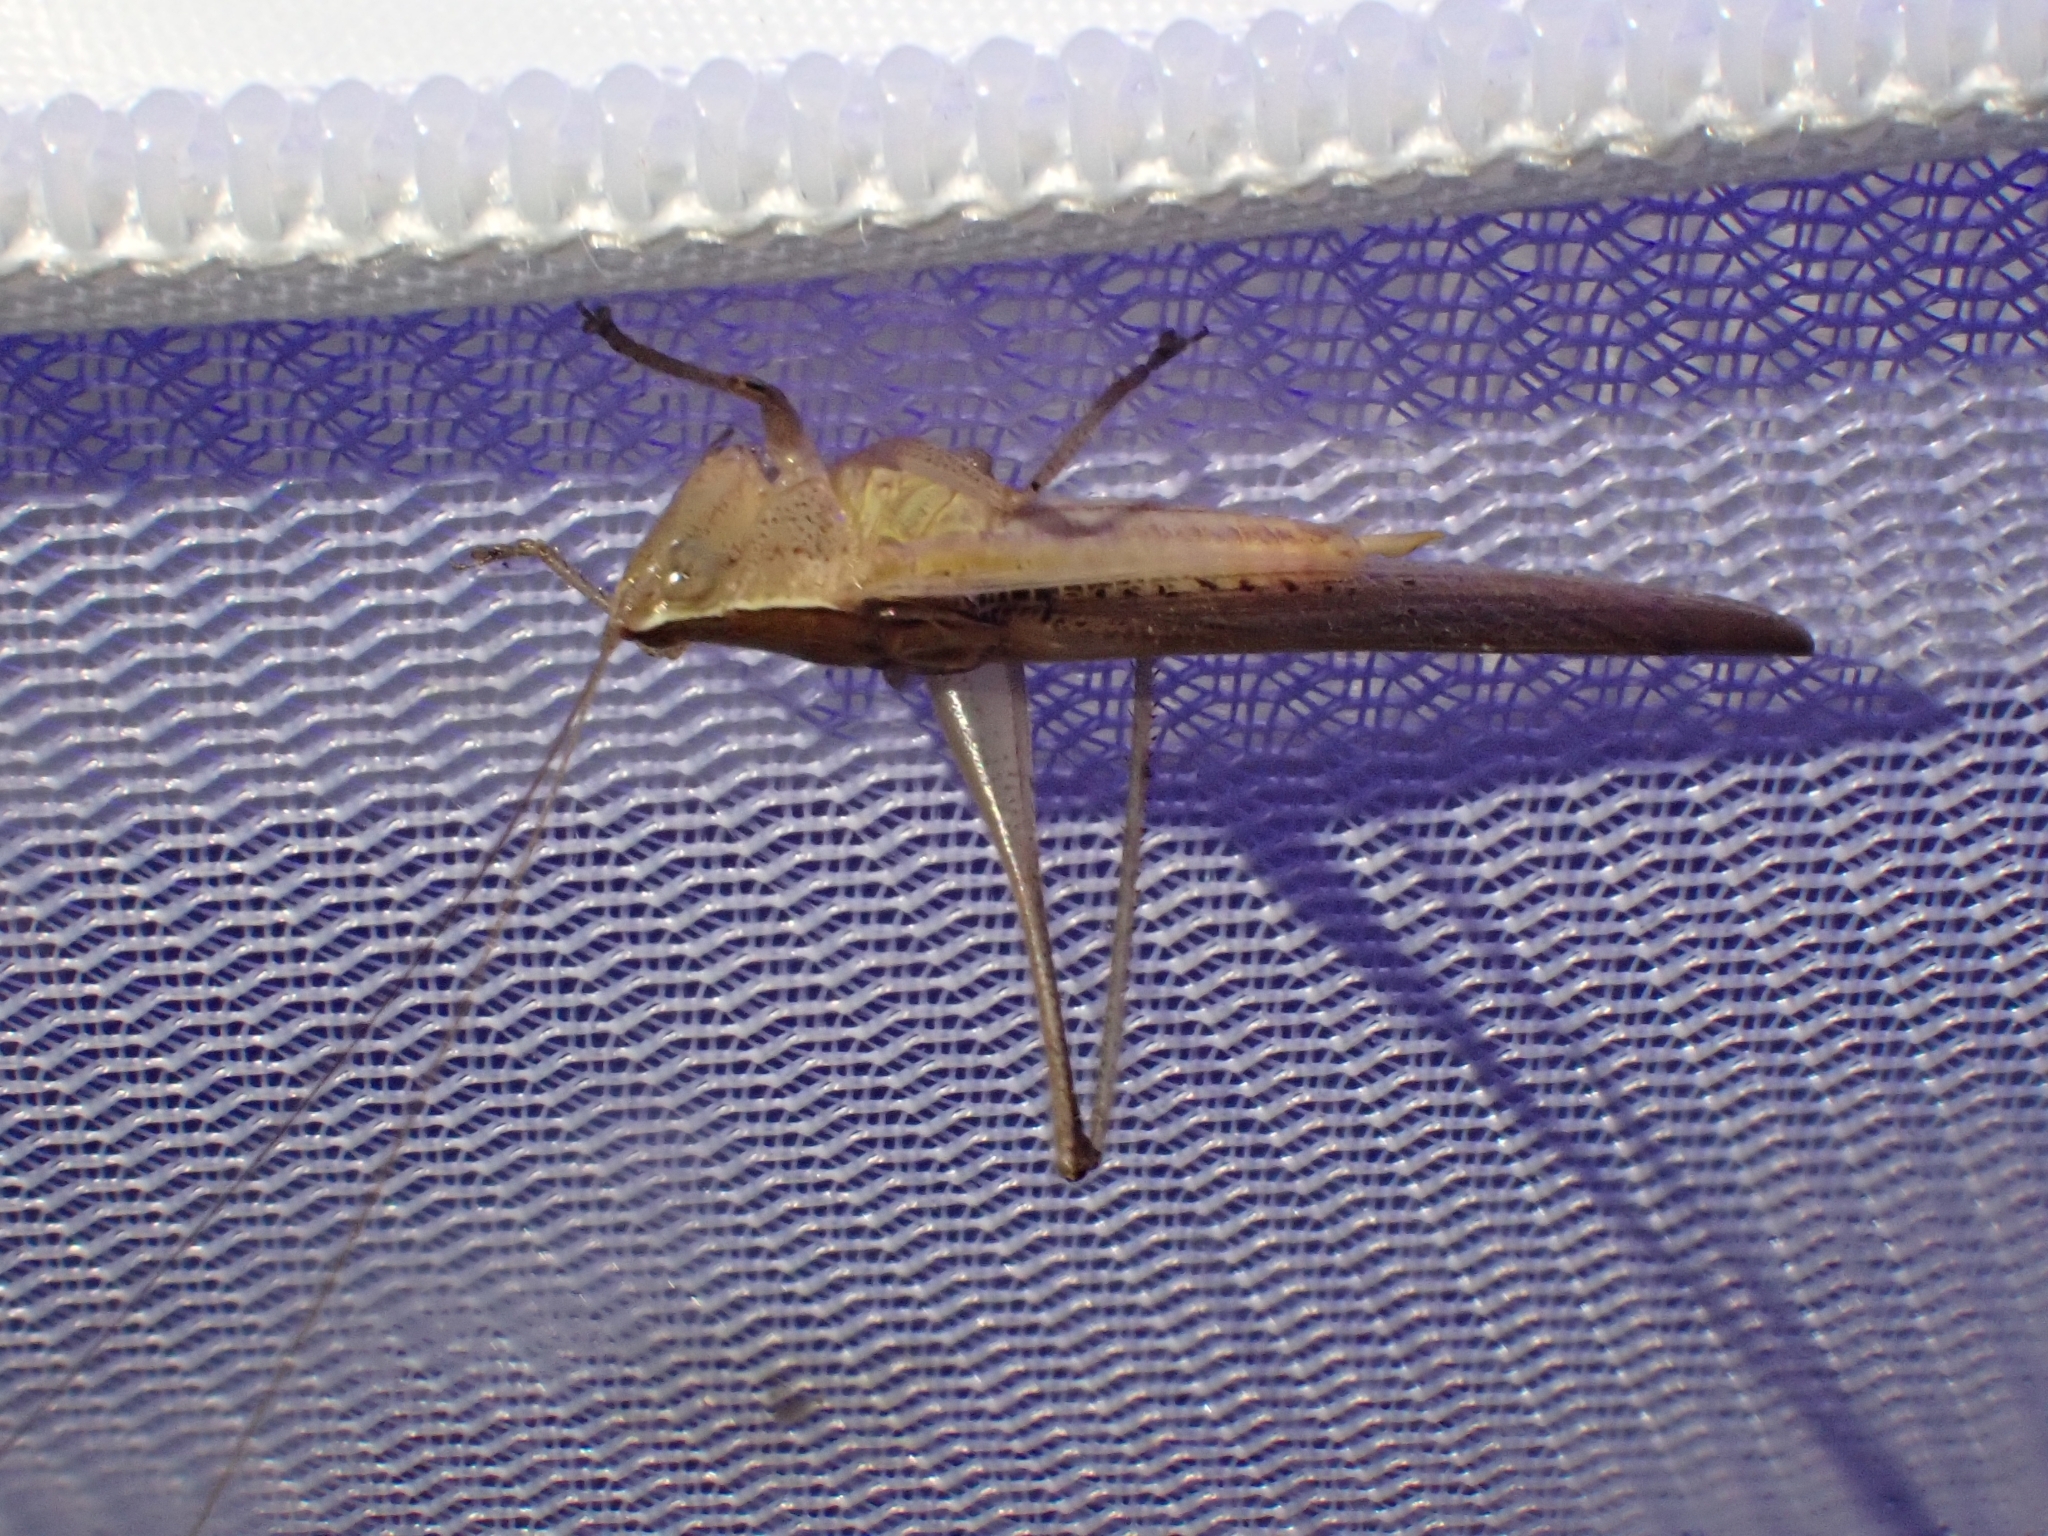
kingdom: Animalia
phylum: Arthropoda
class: Insecta
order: Orthoptera
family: Tettigoniidae
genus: Conocephalus
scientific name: Conocephalus maculatus
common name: Spotted meadow katydid
